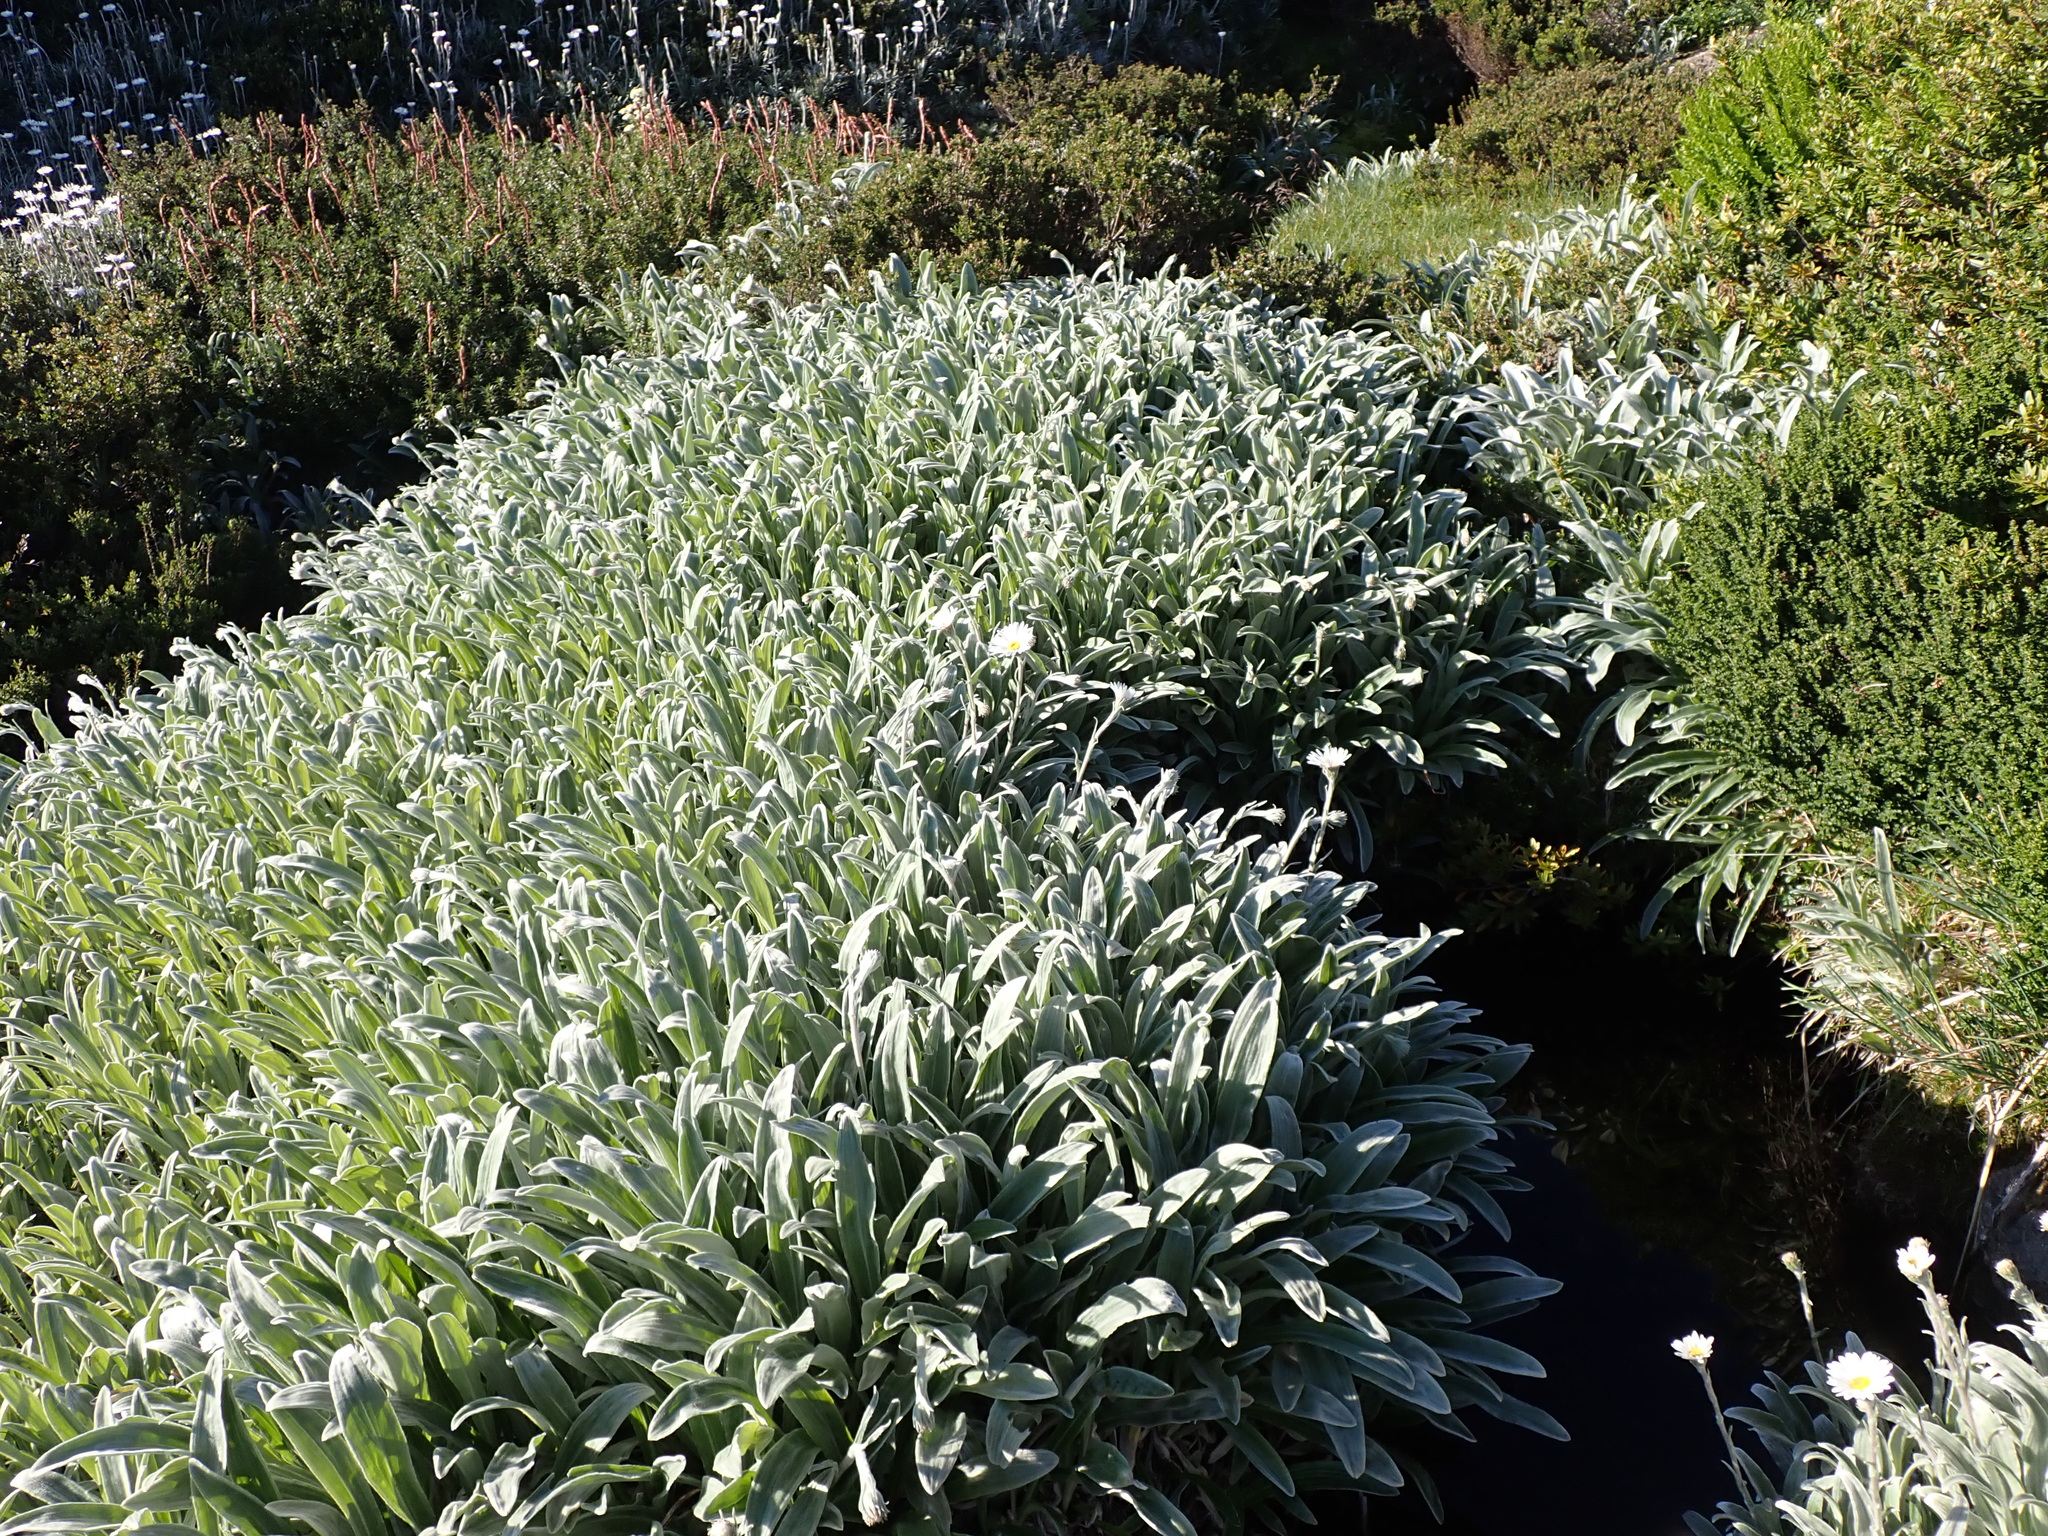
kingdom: Plantae
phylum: Tracheophyta
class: Magnoliopsida
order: Asterales
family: Asteraceae
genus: Celmisia
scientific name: Celmisia sericophylla
